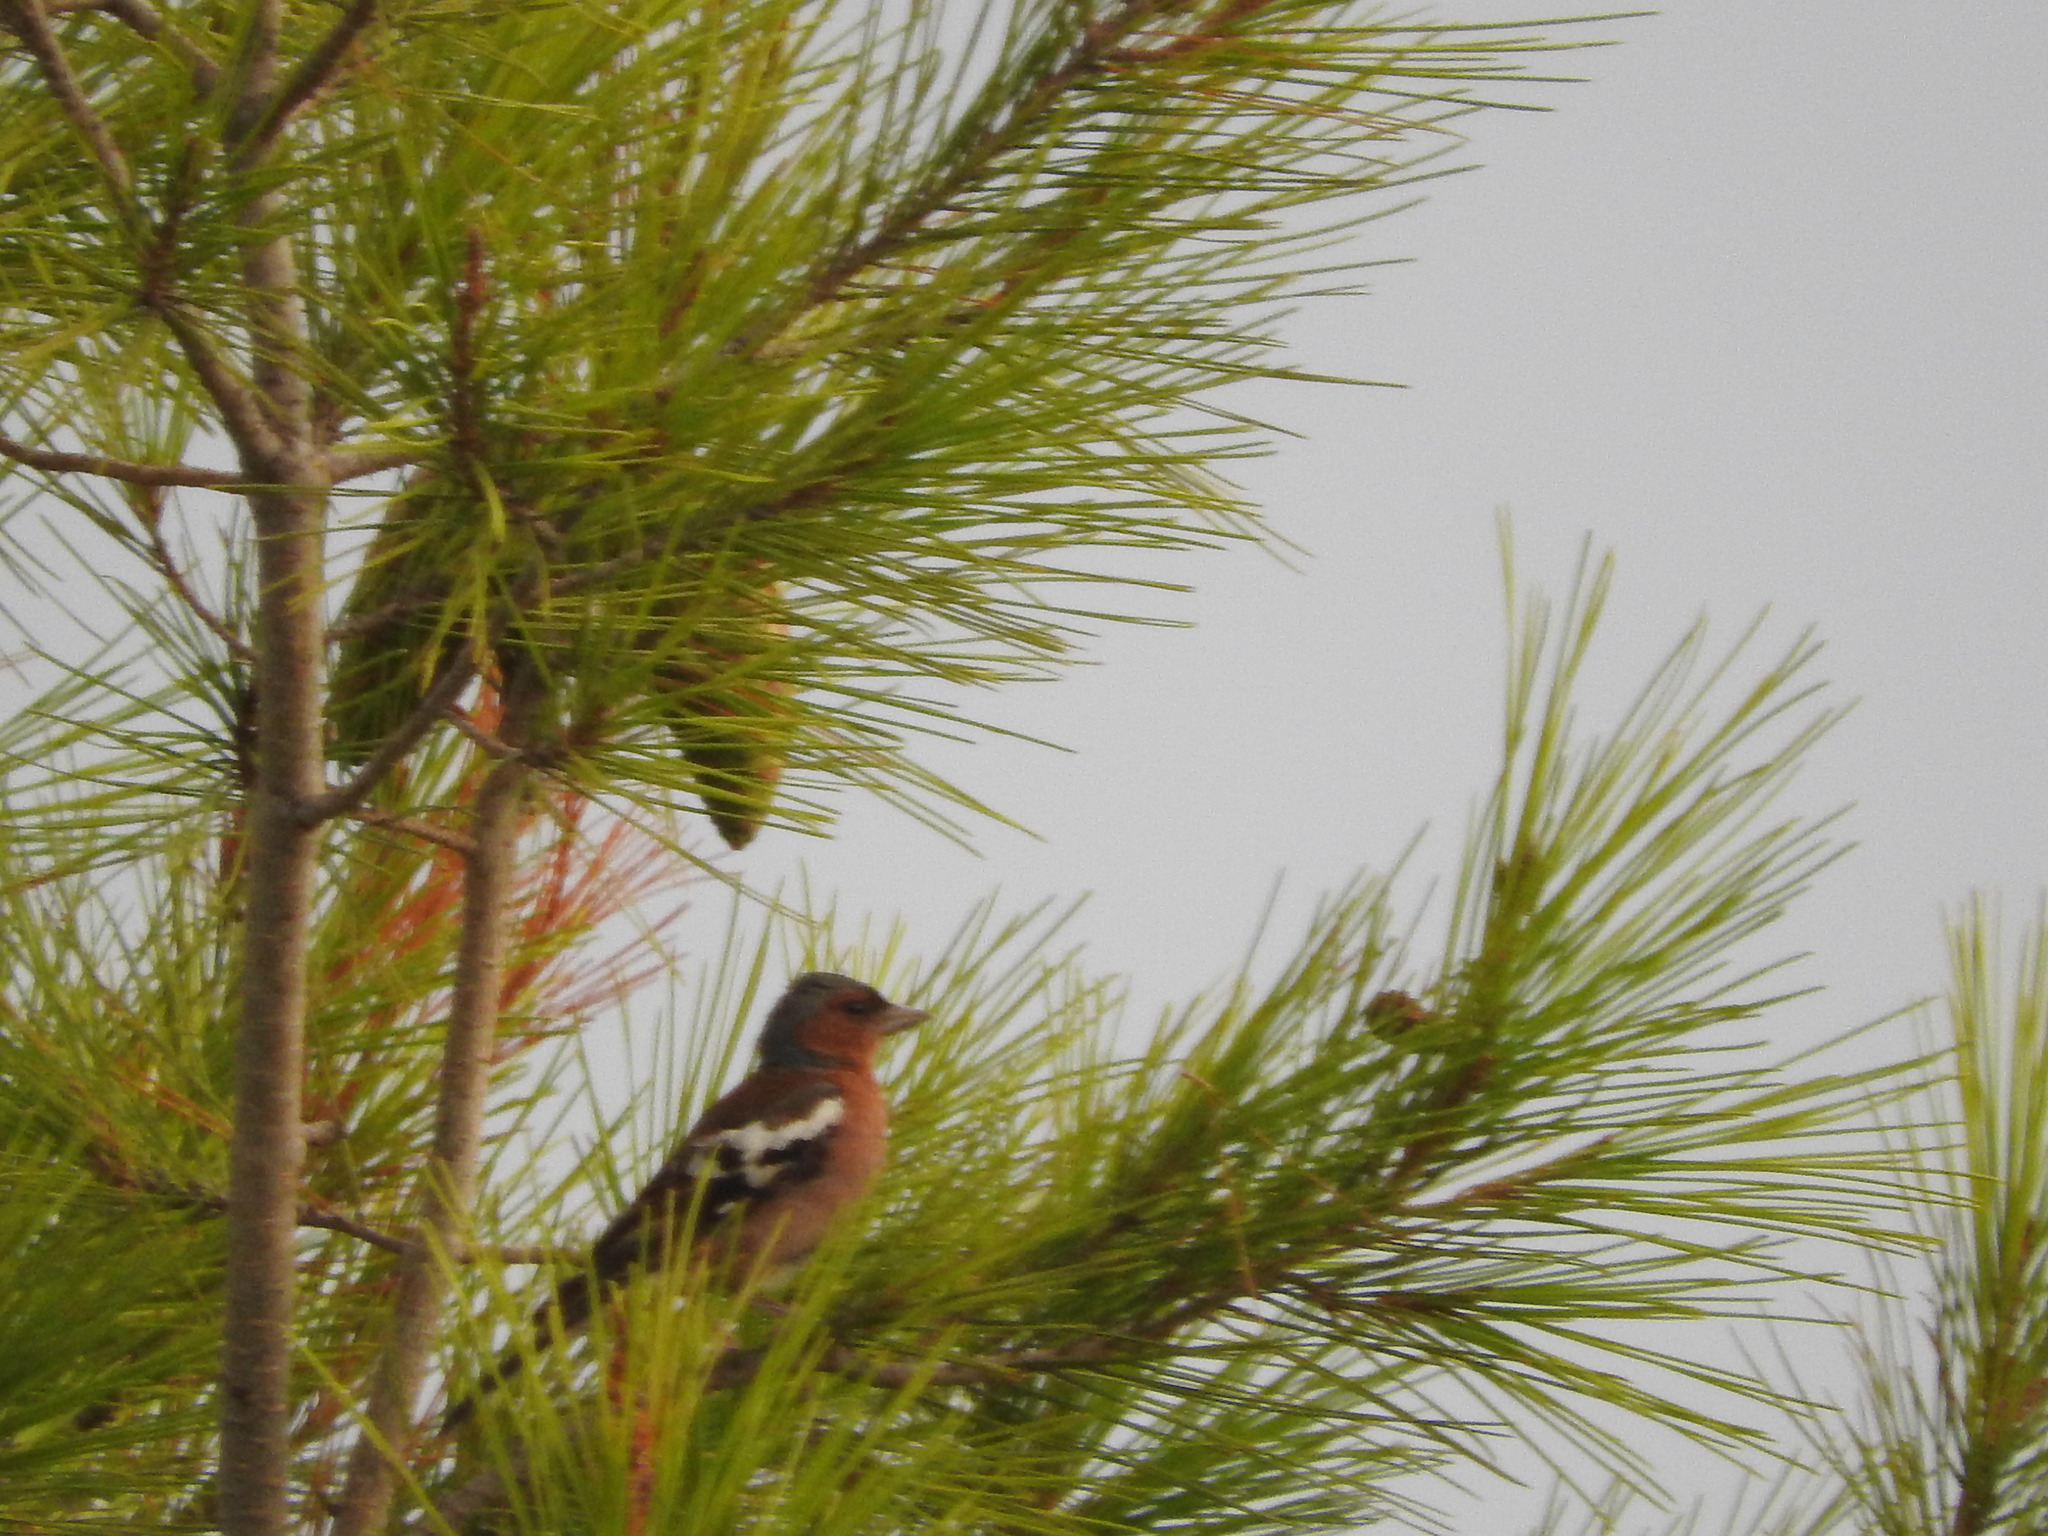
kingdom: Animalia
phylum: Chordata
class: Aves
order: Passeriformes
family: Fringillidae
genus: Fringilla
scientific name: Fringilla coelebs
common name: Common chaffinch
